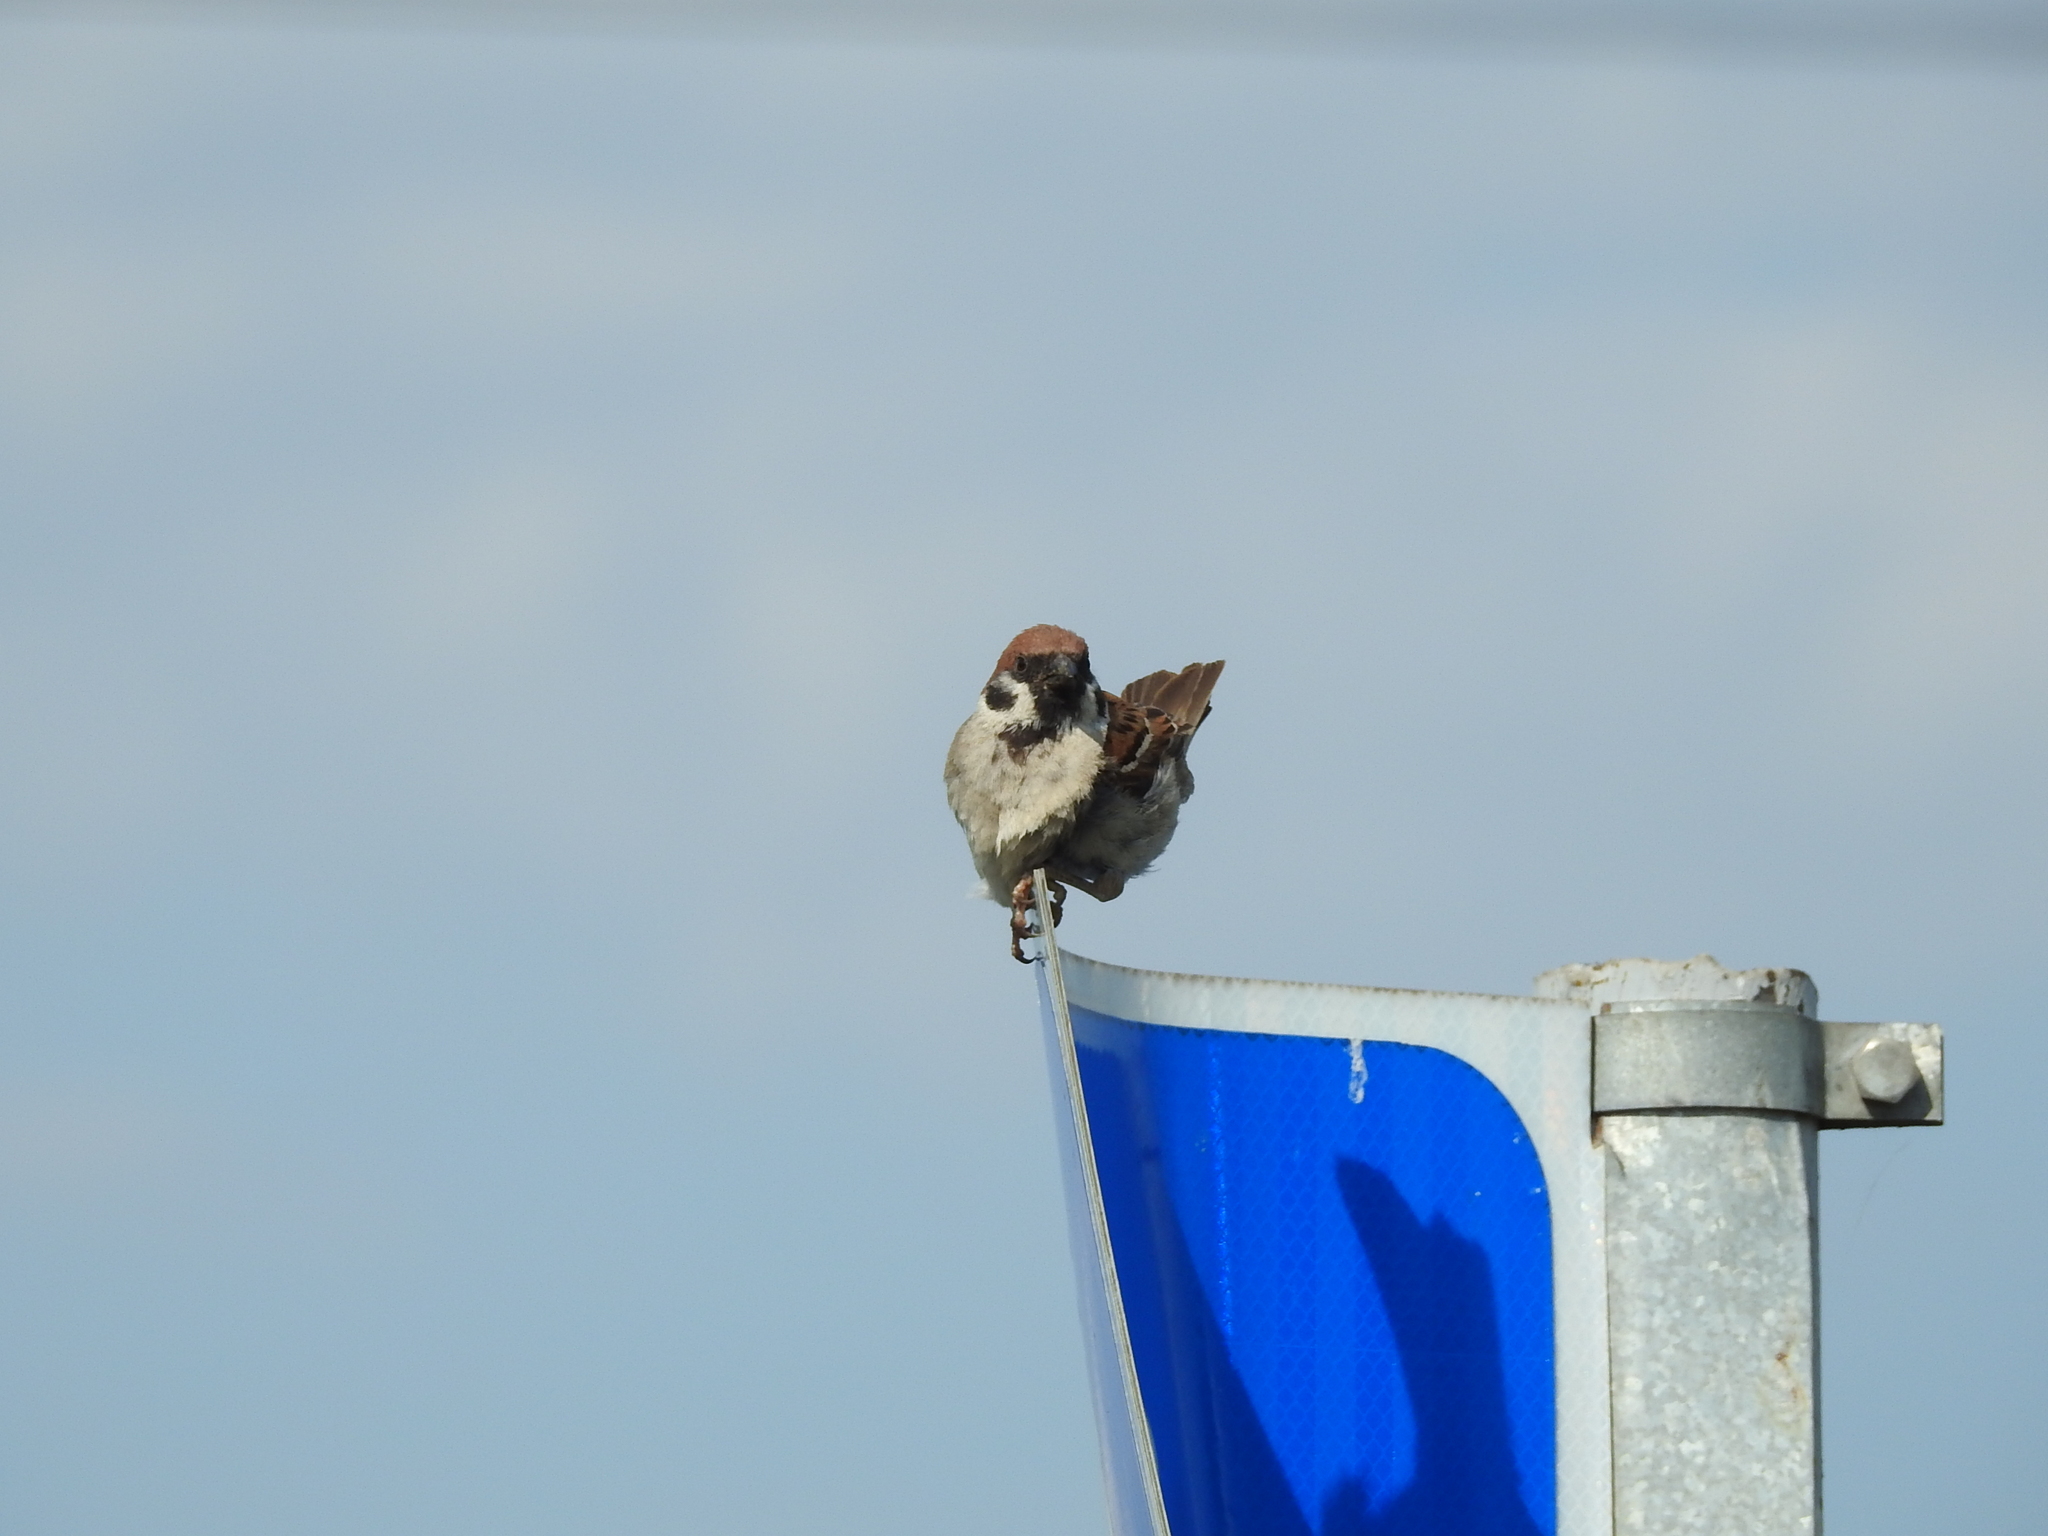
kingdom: Animalia
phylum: Chordata
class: Aves
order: Passeriformes
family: Passeridae
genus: Passer
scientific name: Passer montanus
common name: Eurasian tree sparrow
